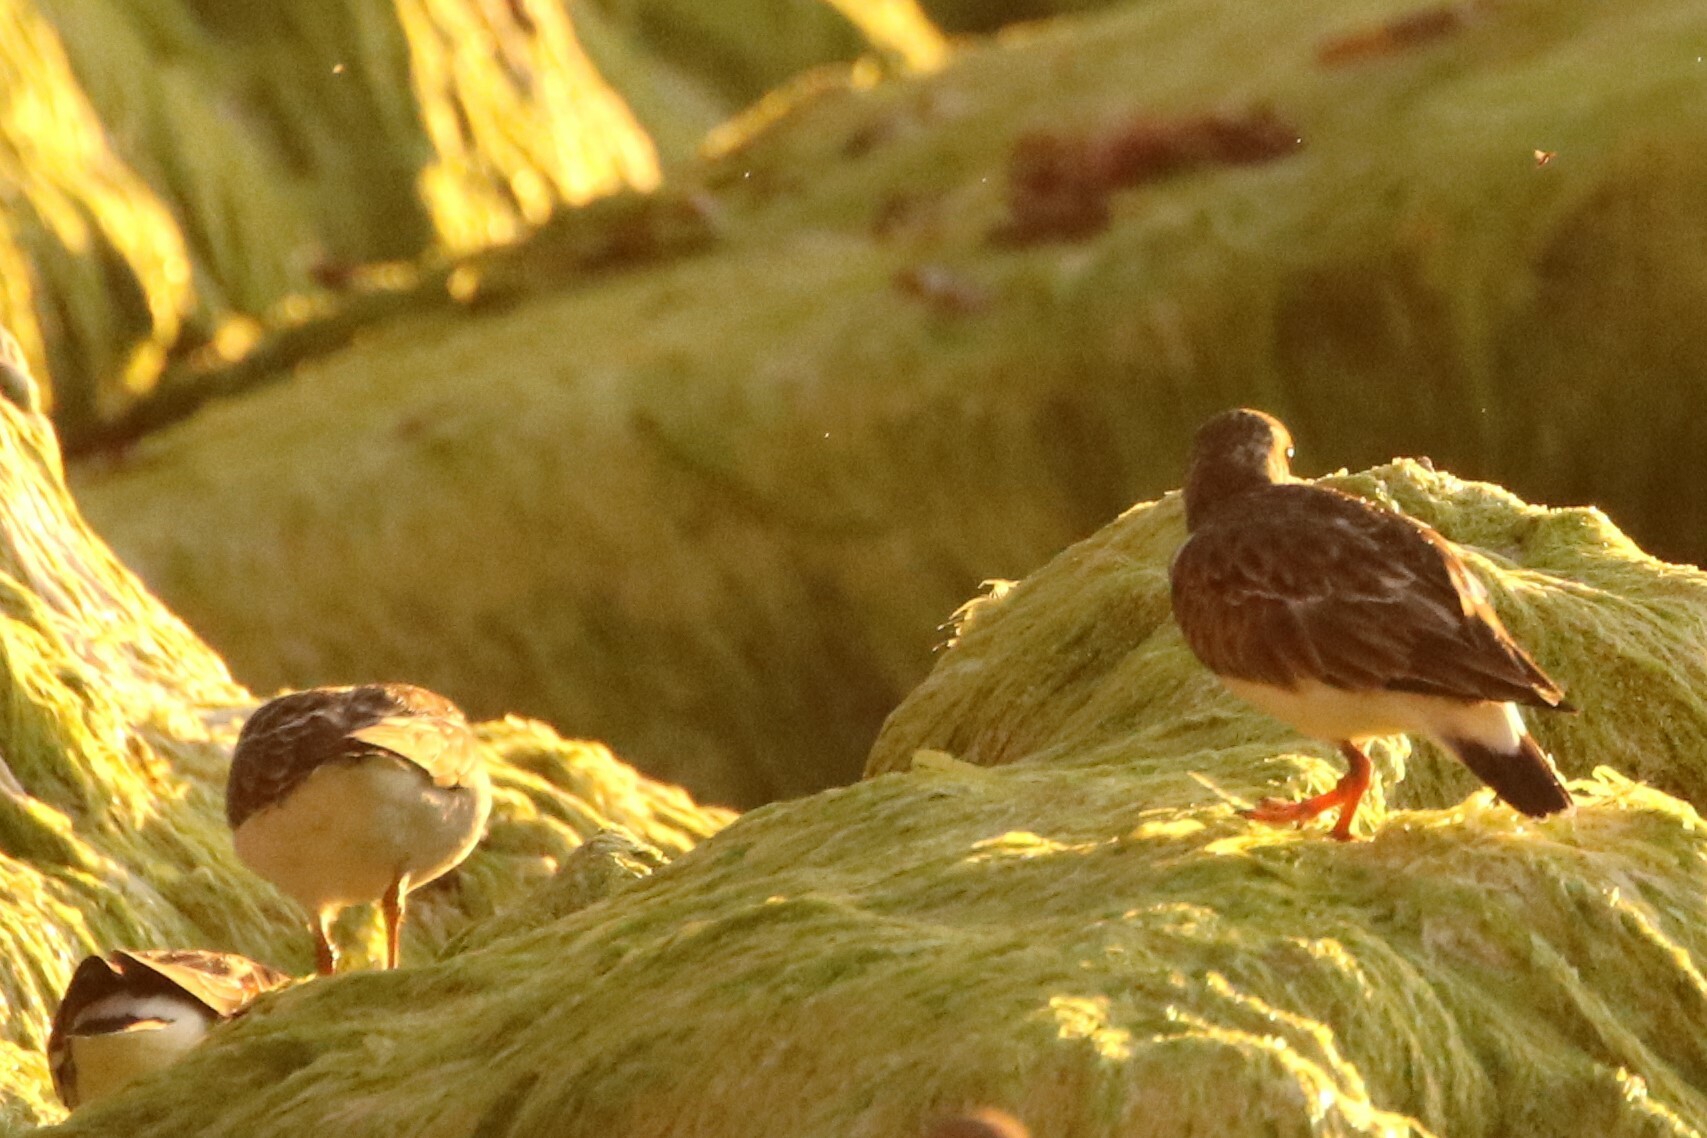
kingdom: Animalia
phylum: Chordata
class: Aves
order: Charadriiformes
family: Scolopacidae
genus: Arenaria
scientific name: Arenaria interpres
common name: Ruddy turnstone
